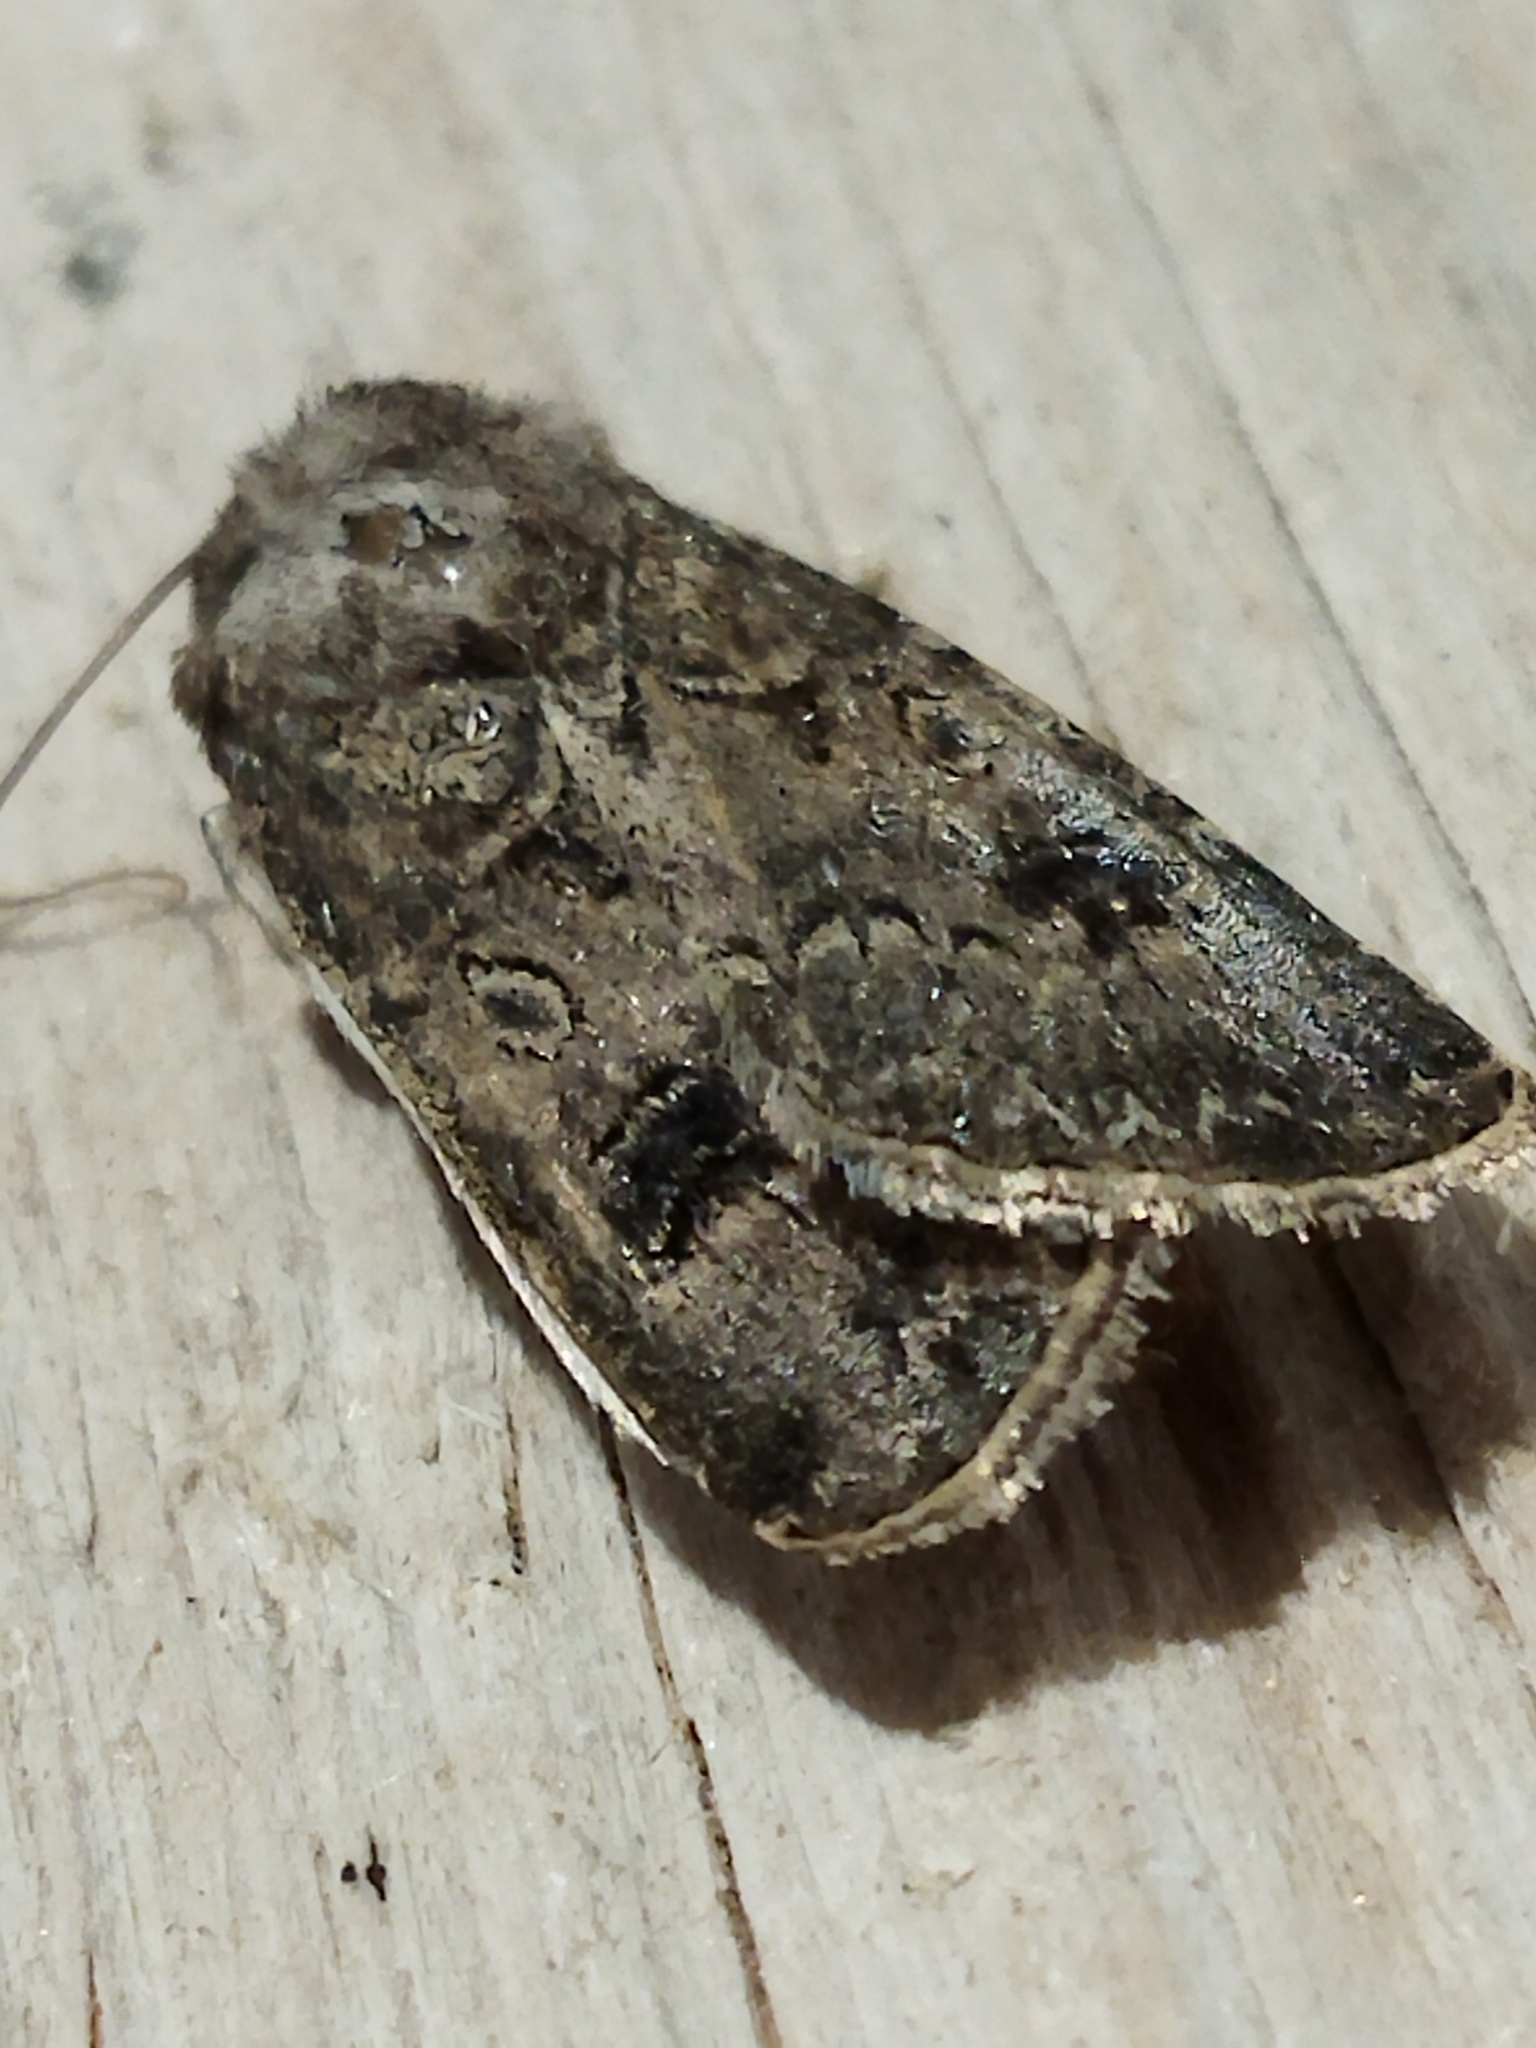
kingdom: Animalia
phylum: Arthropoda
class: Insecta
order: Lepidoptera
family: Noctuidae
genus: Agrotis
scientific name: Agrotis bigramma
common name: Great dart
